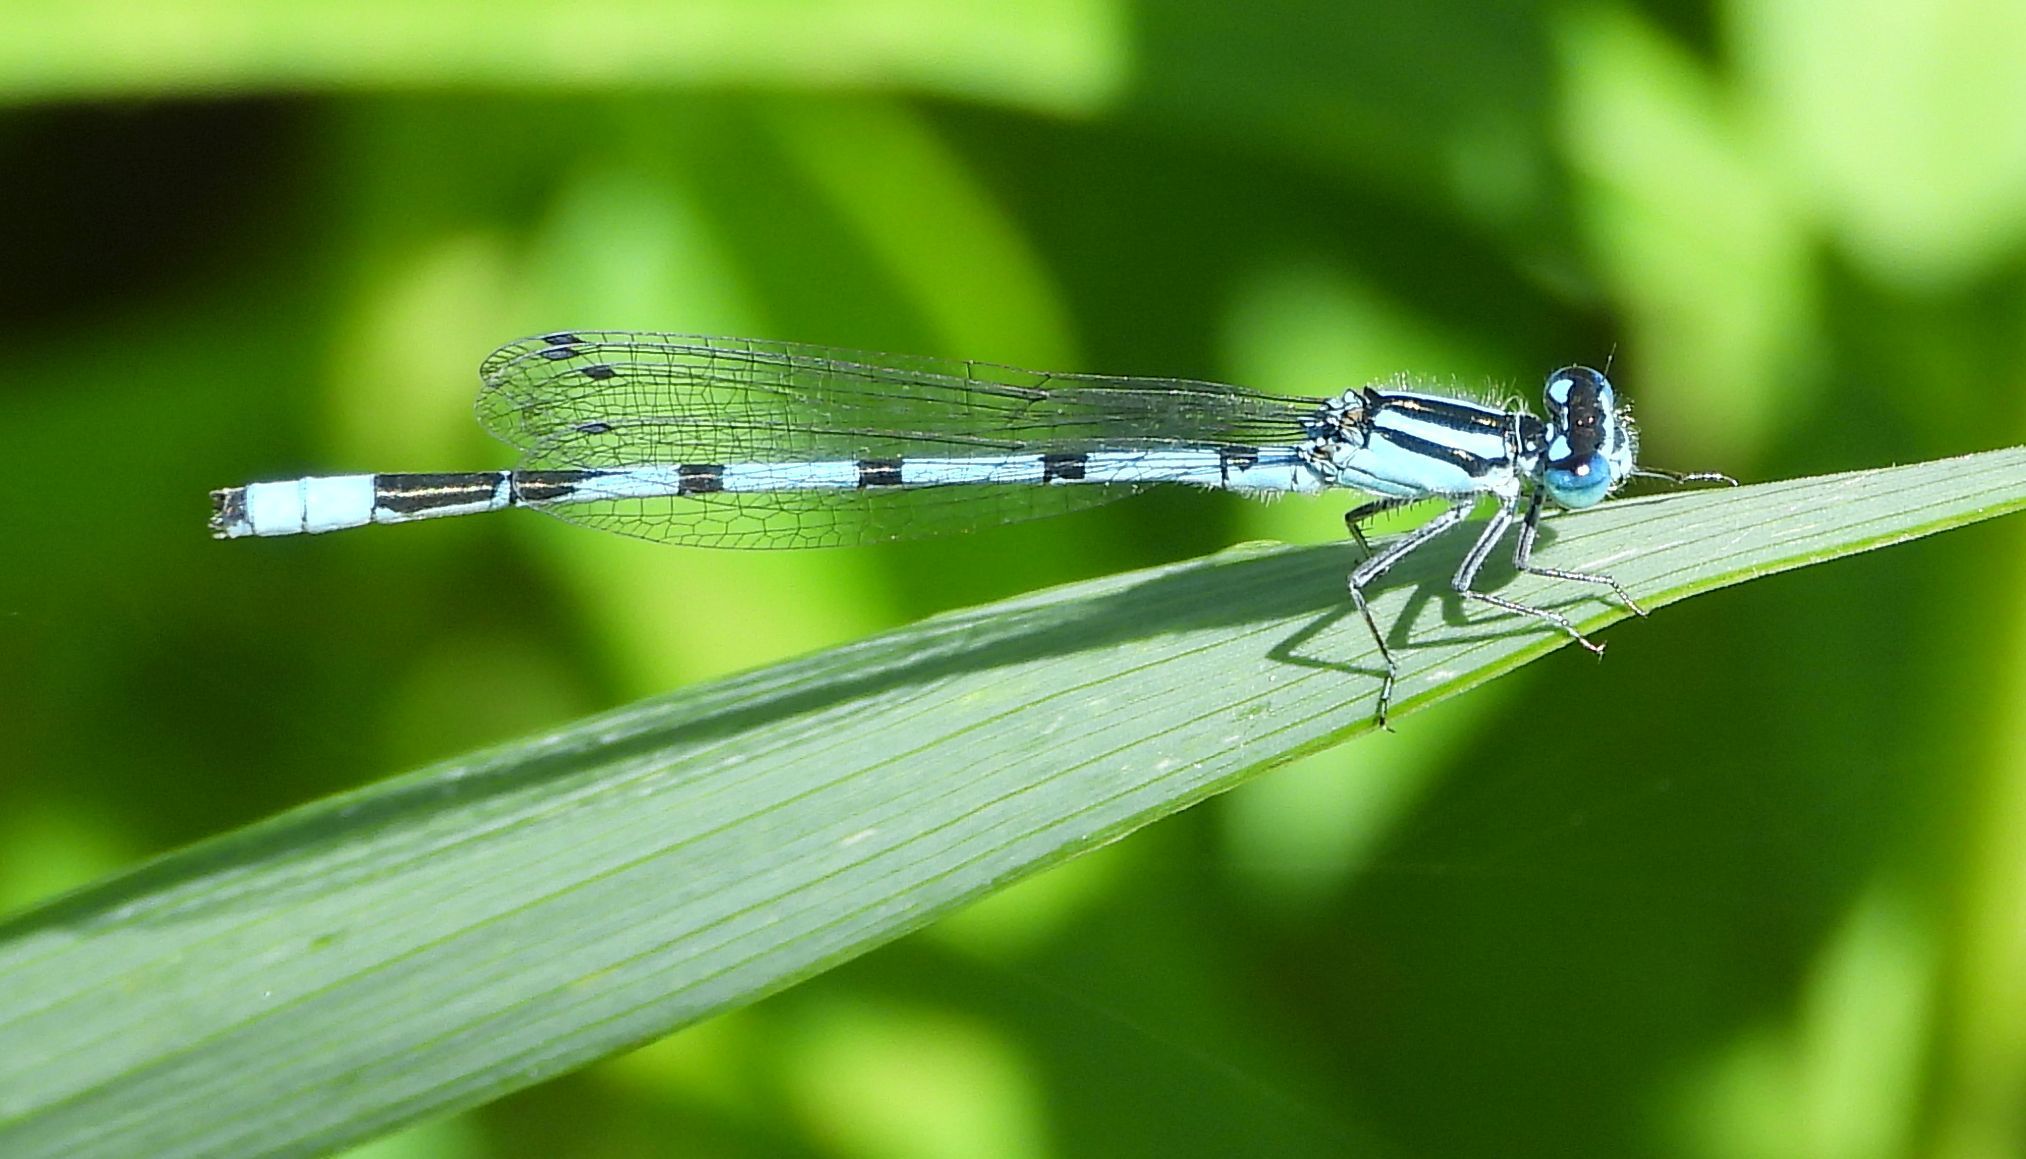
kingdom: Animalia
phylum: Arthropoda
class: Insecta
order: Odonata
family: Coenagrionidae
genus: Enallagma
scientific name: Enallagma ebrium
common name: Marsh bluet
